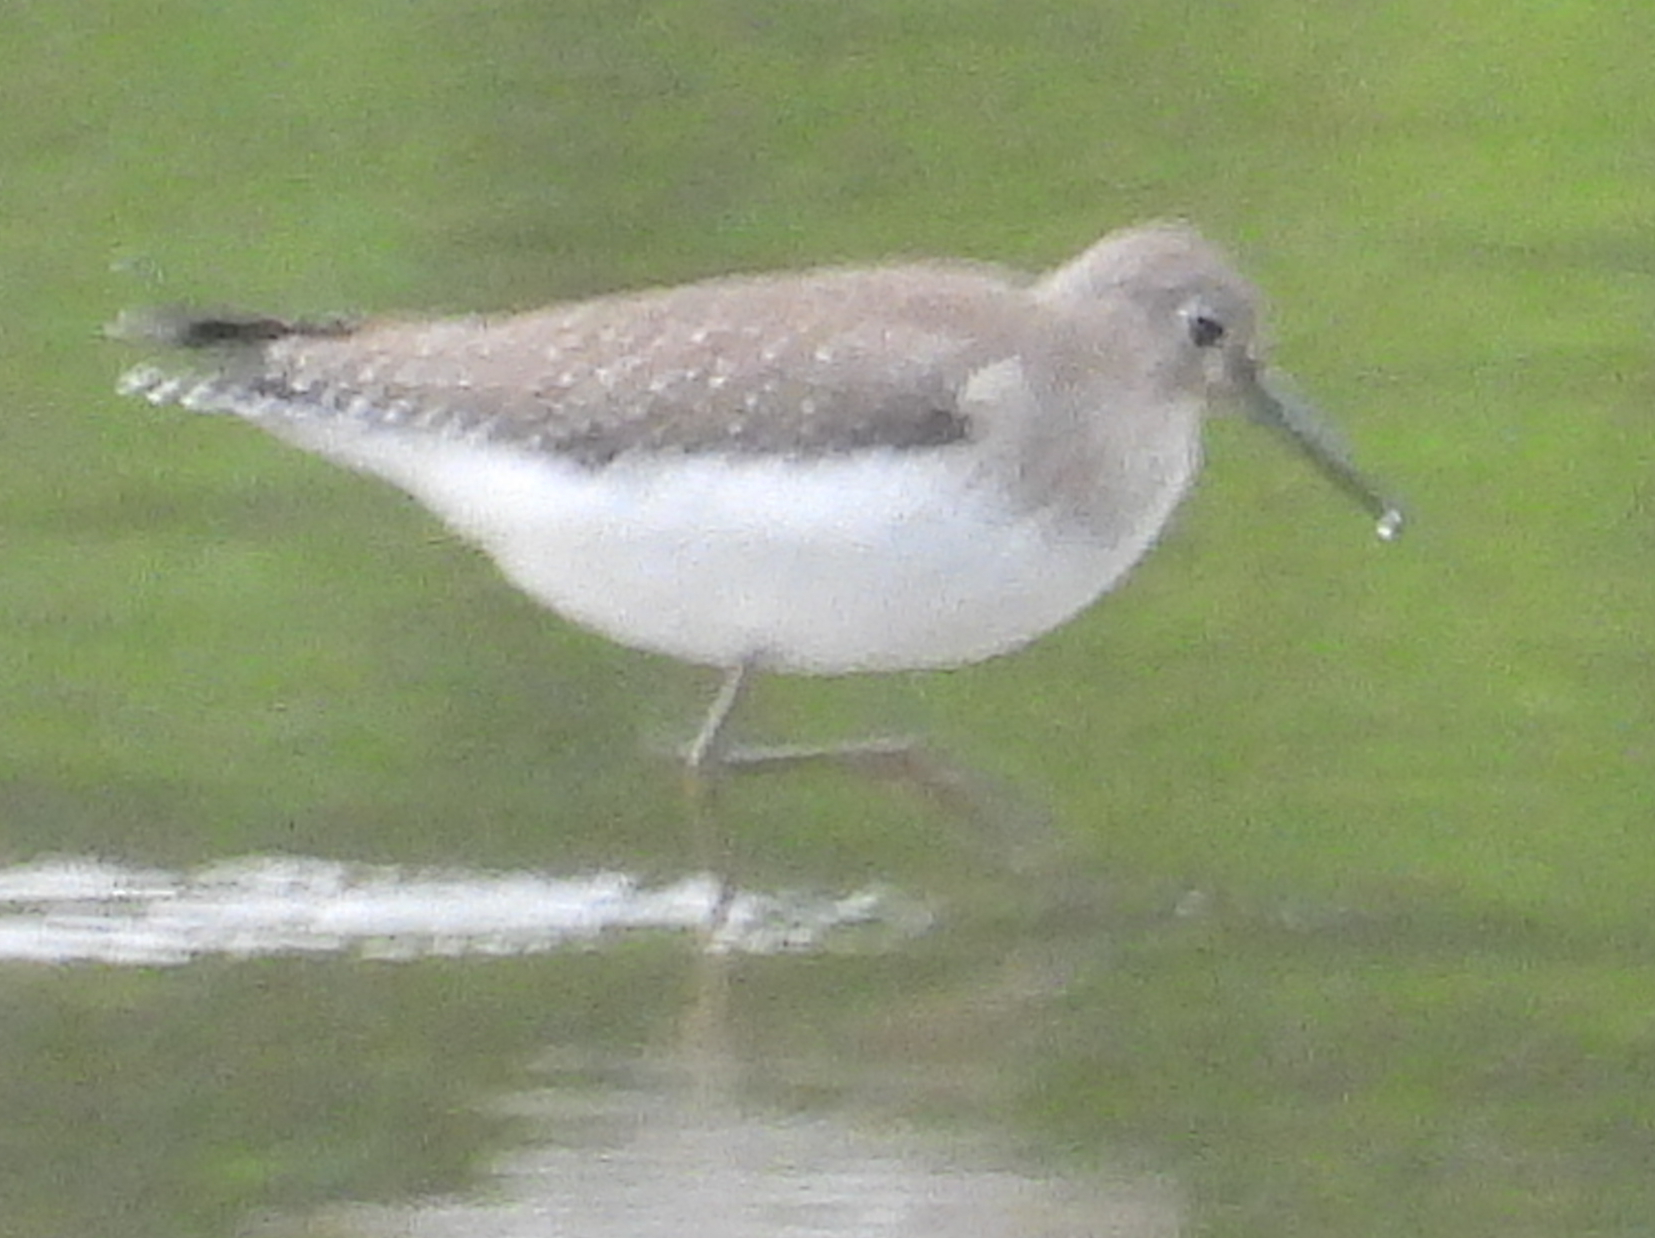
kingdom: Animalia
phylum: Chordata
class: Aves
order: Charadriiformes
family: Scolopacidae
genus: Tringa
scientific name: Tringa solitaria
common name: Solitary sandpiper
